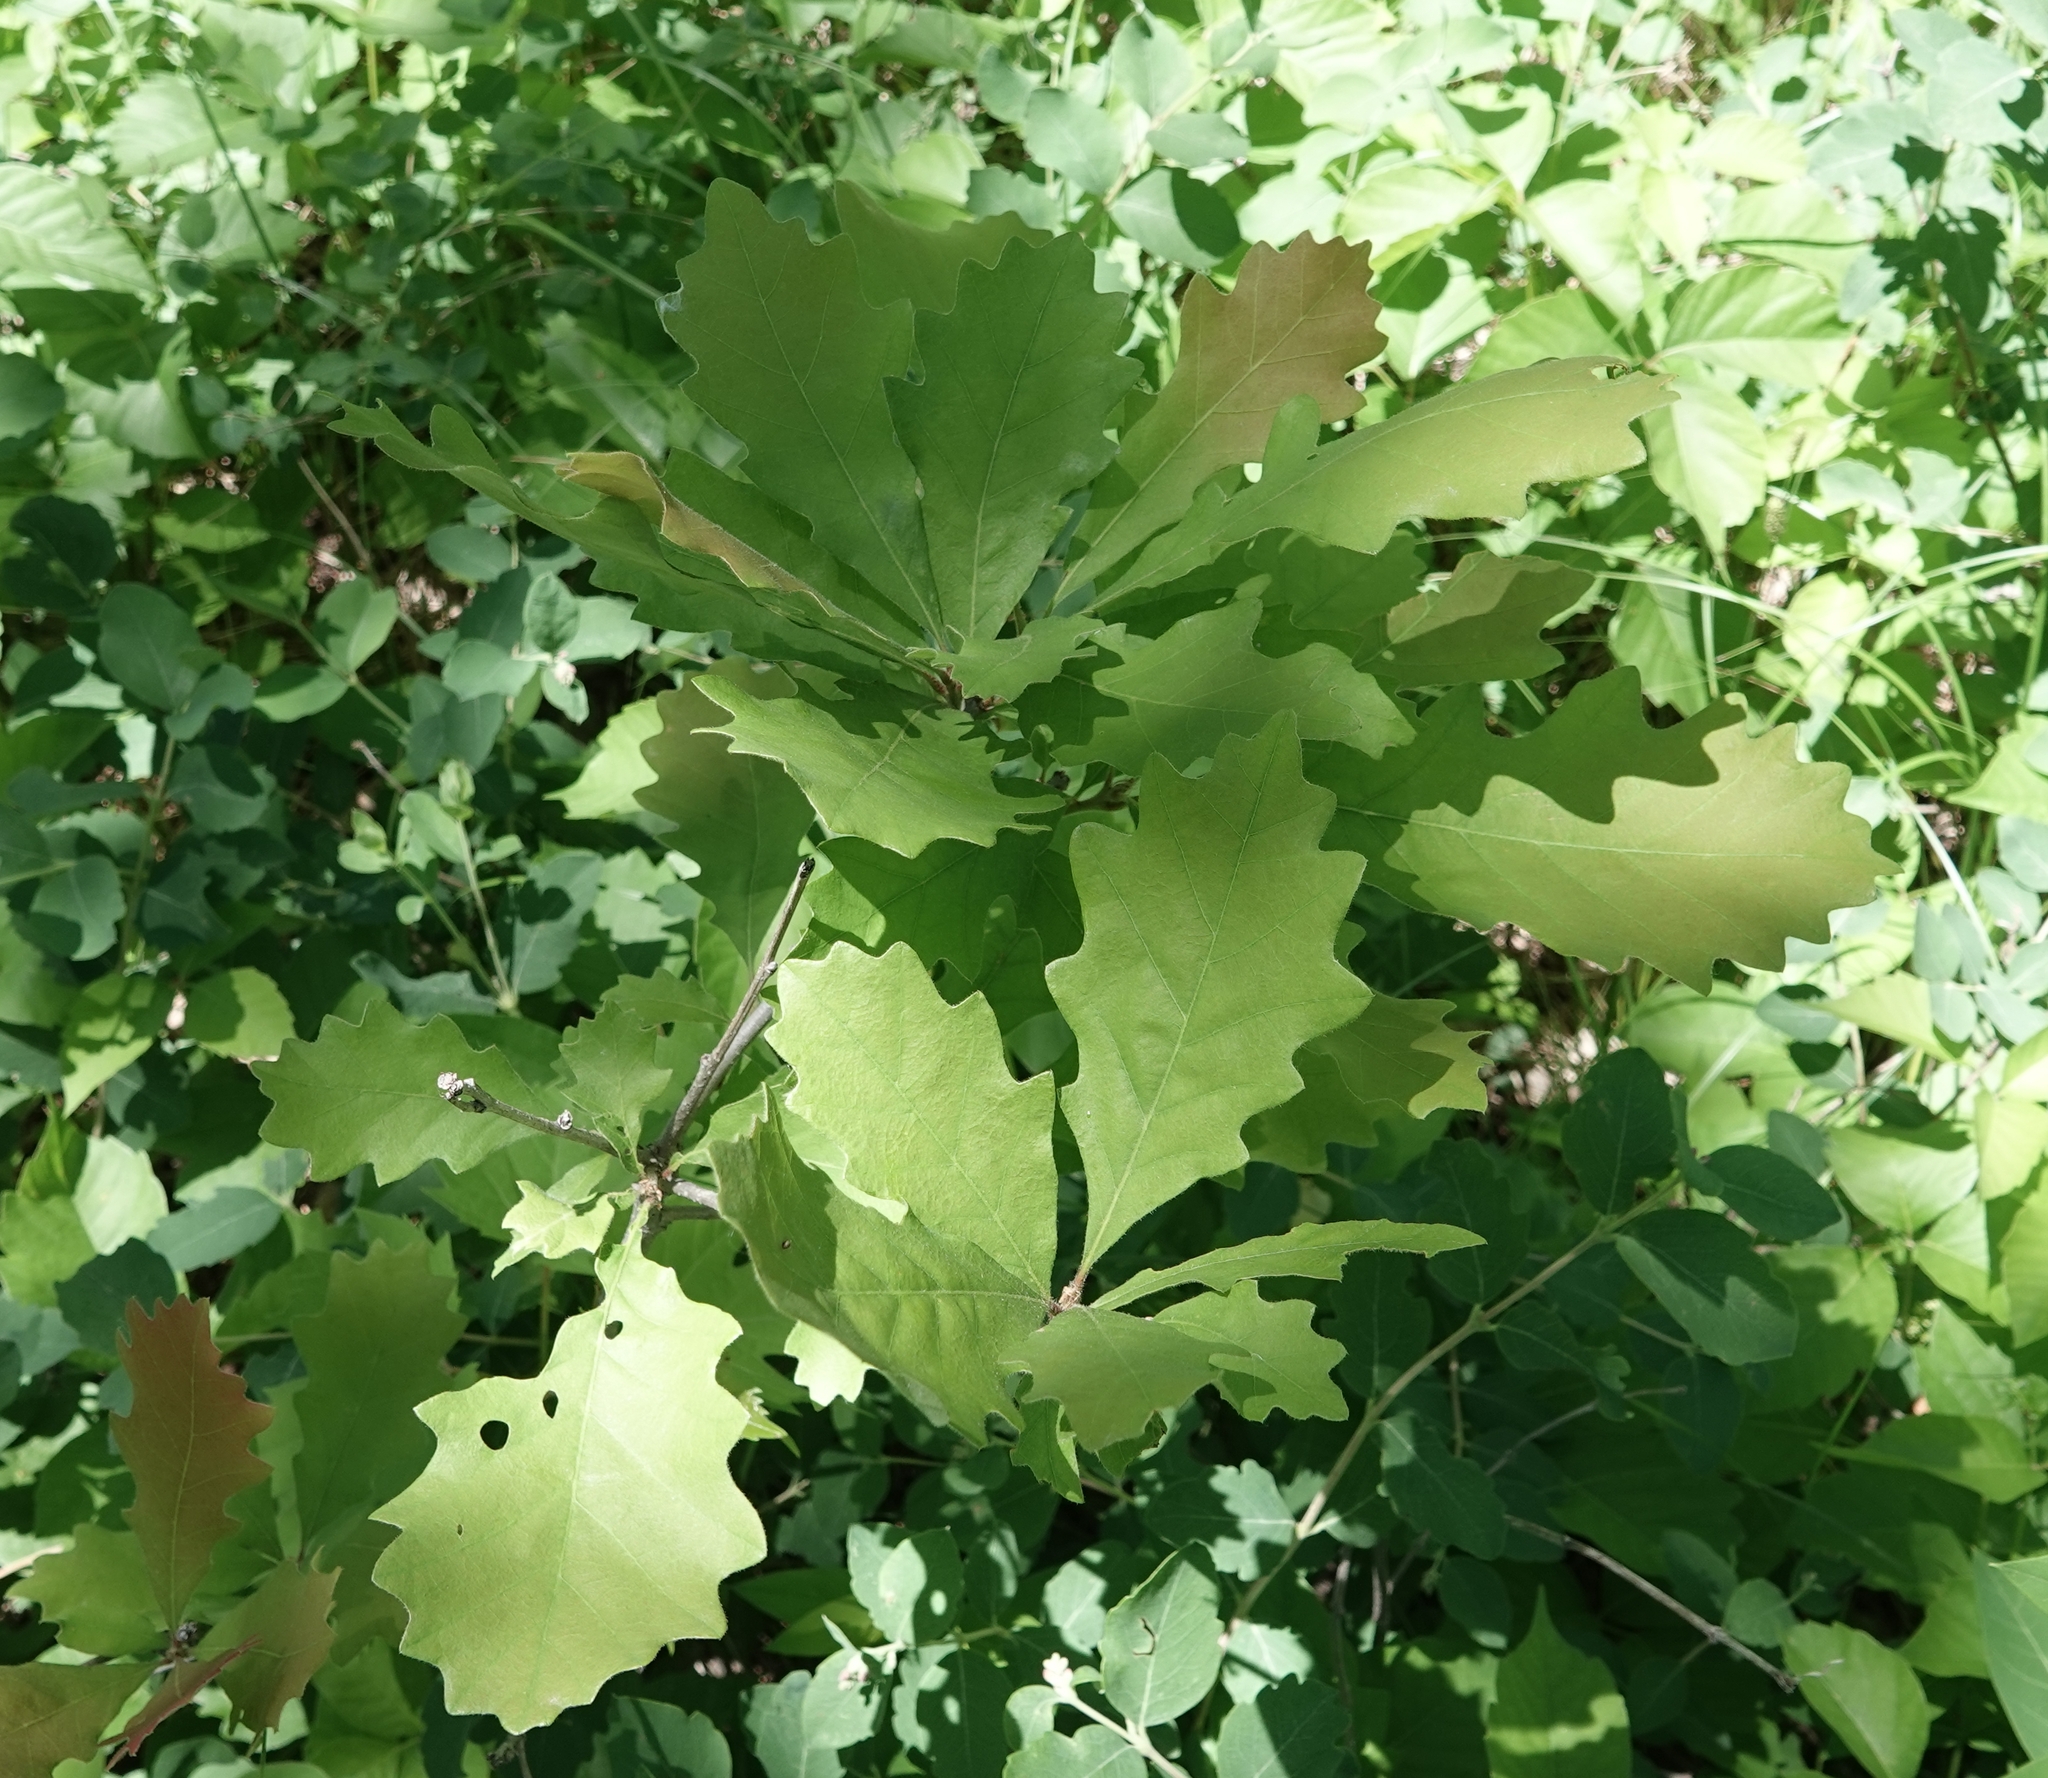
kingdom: Plantae
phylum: Tracheophyta
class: Magnoliopsida
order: Fagales
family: Fagaceae
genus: Quercus
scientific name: Quercus macrocarpa
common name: Bur oak
